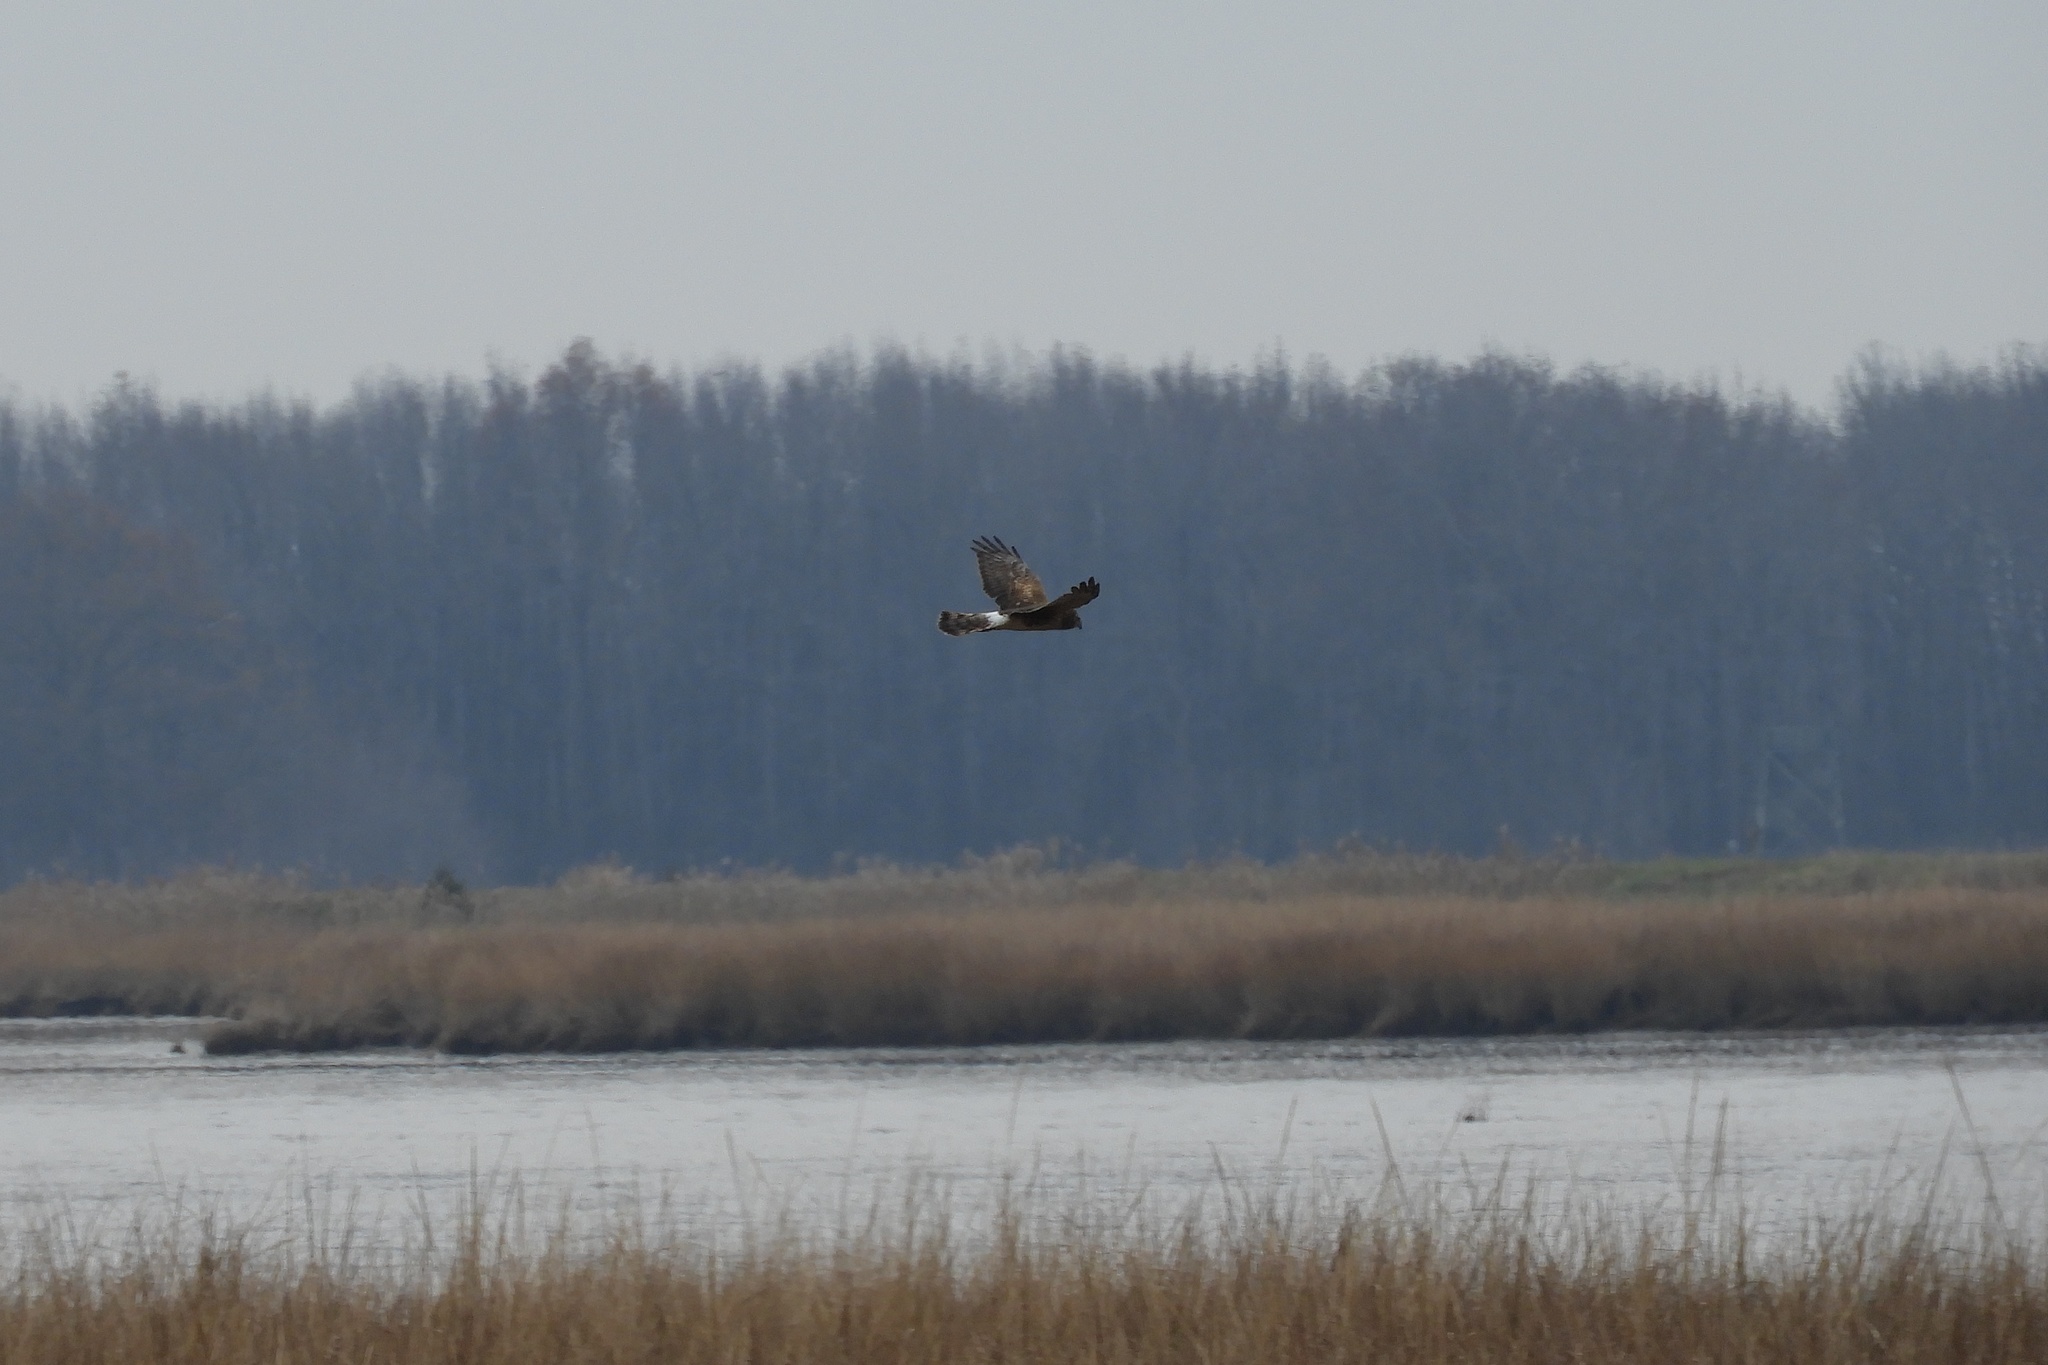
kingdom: Animalia
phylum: Chordata
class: Aves
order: Accipitriformes
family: Accipitridae
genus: Circus
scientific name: Circus cyaneus
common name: Hen harrier
